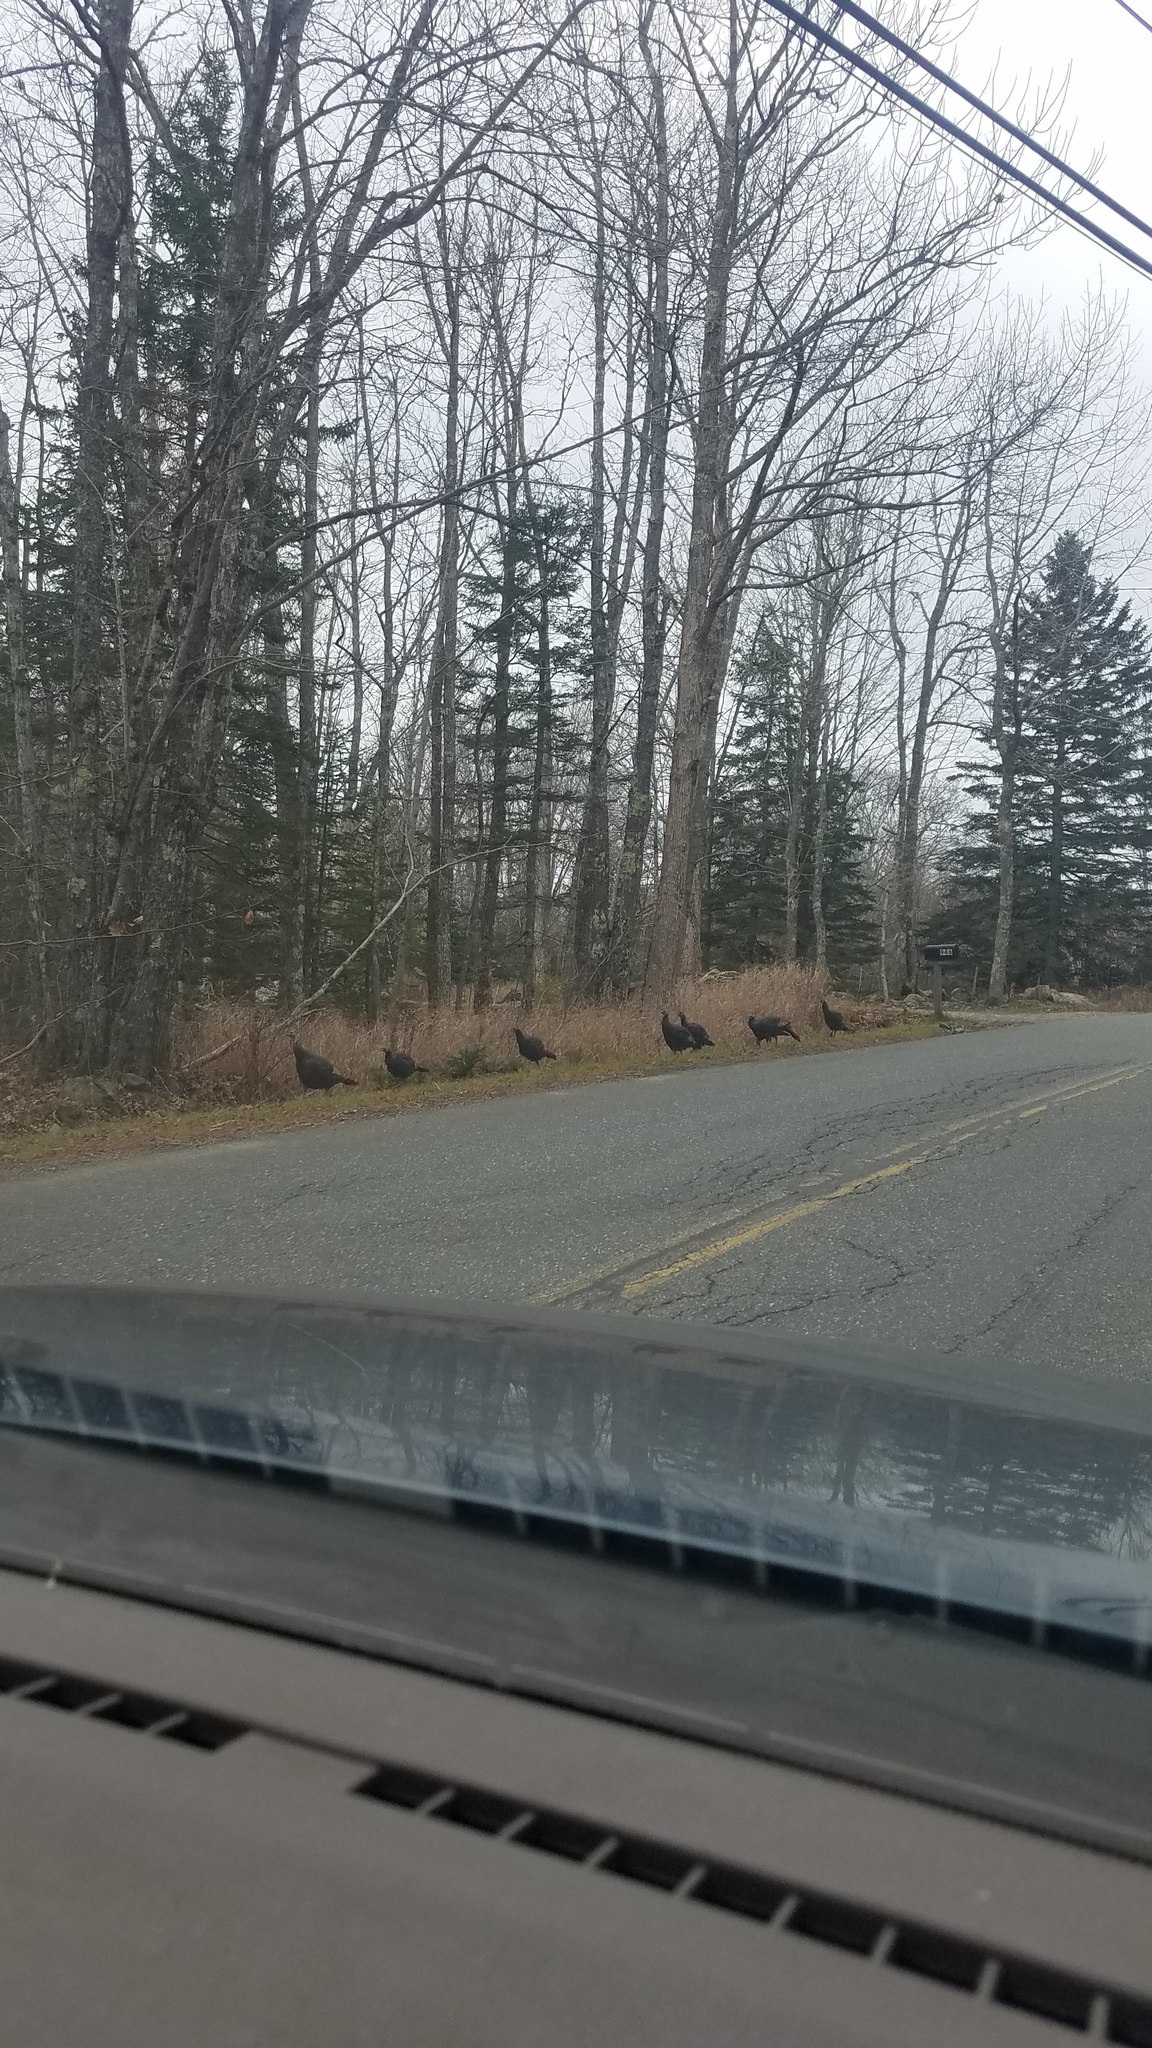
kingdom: Animalia
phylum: Chordata
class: Aves
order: Galliformes
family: Phasianidae
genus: Meleagris
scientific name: Meleagris gallopavo
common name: Wild turkey
